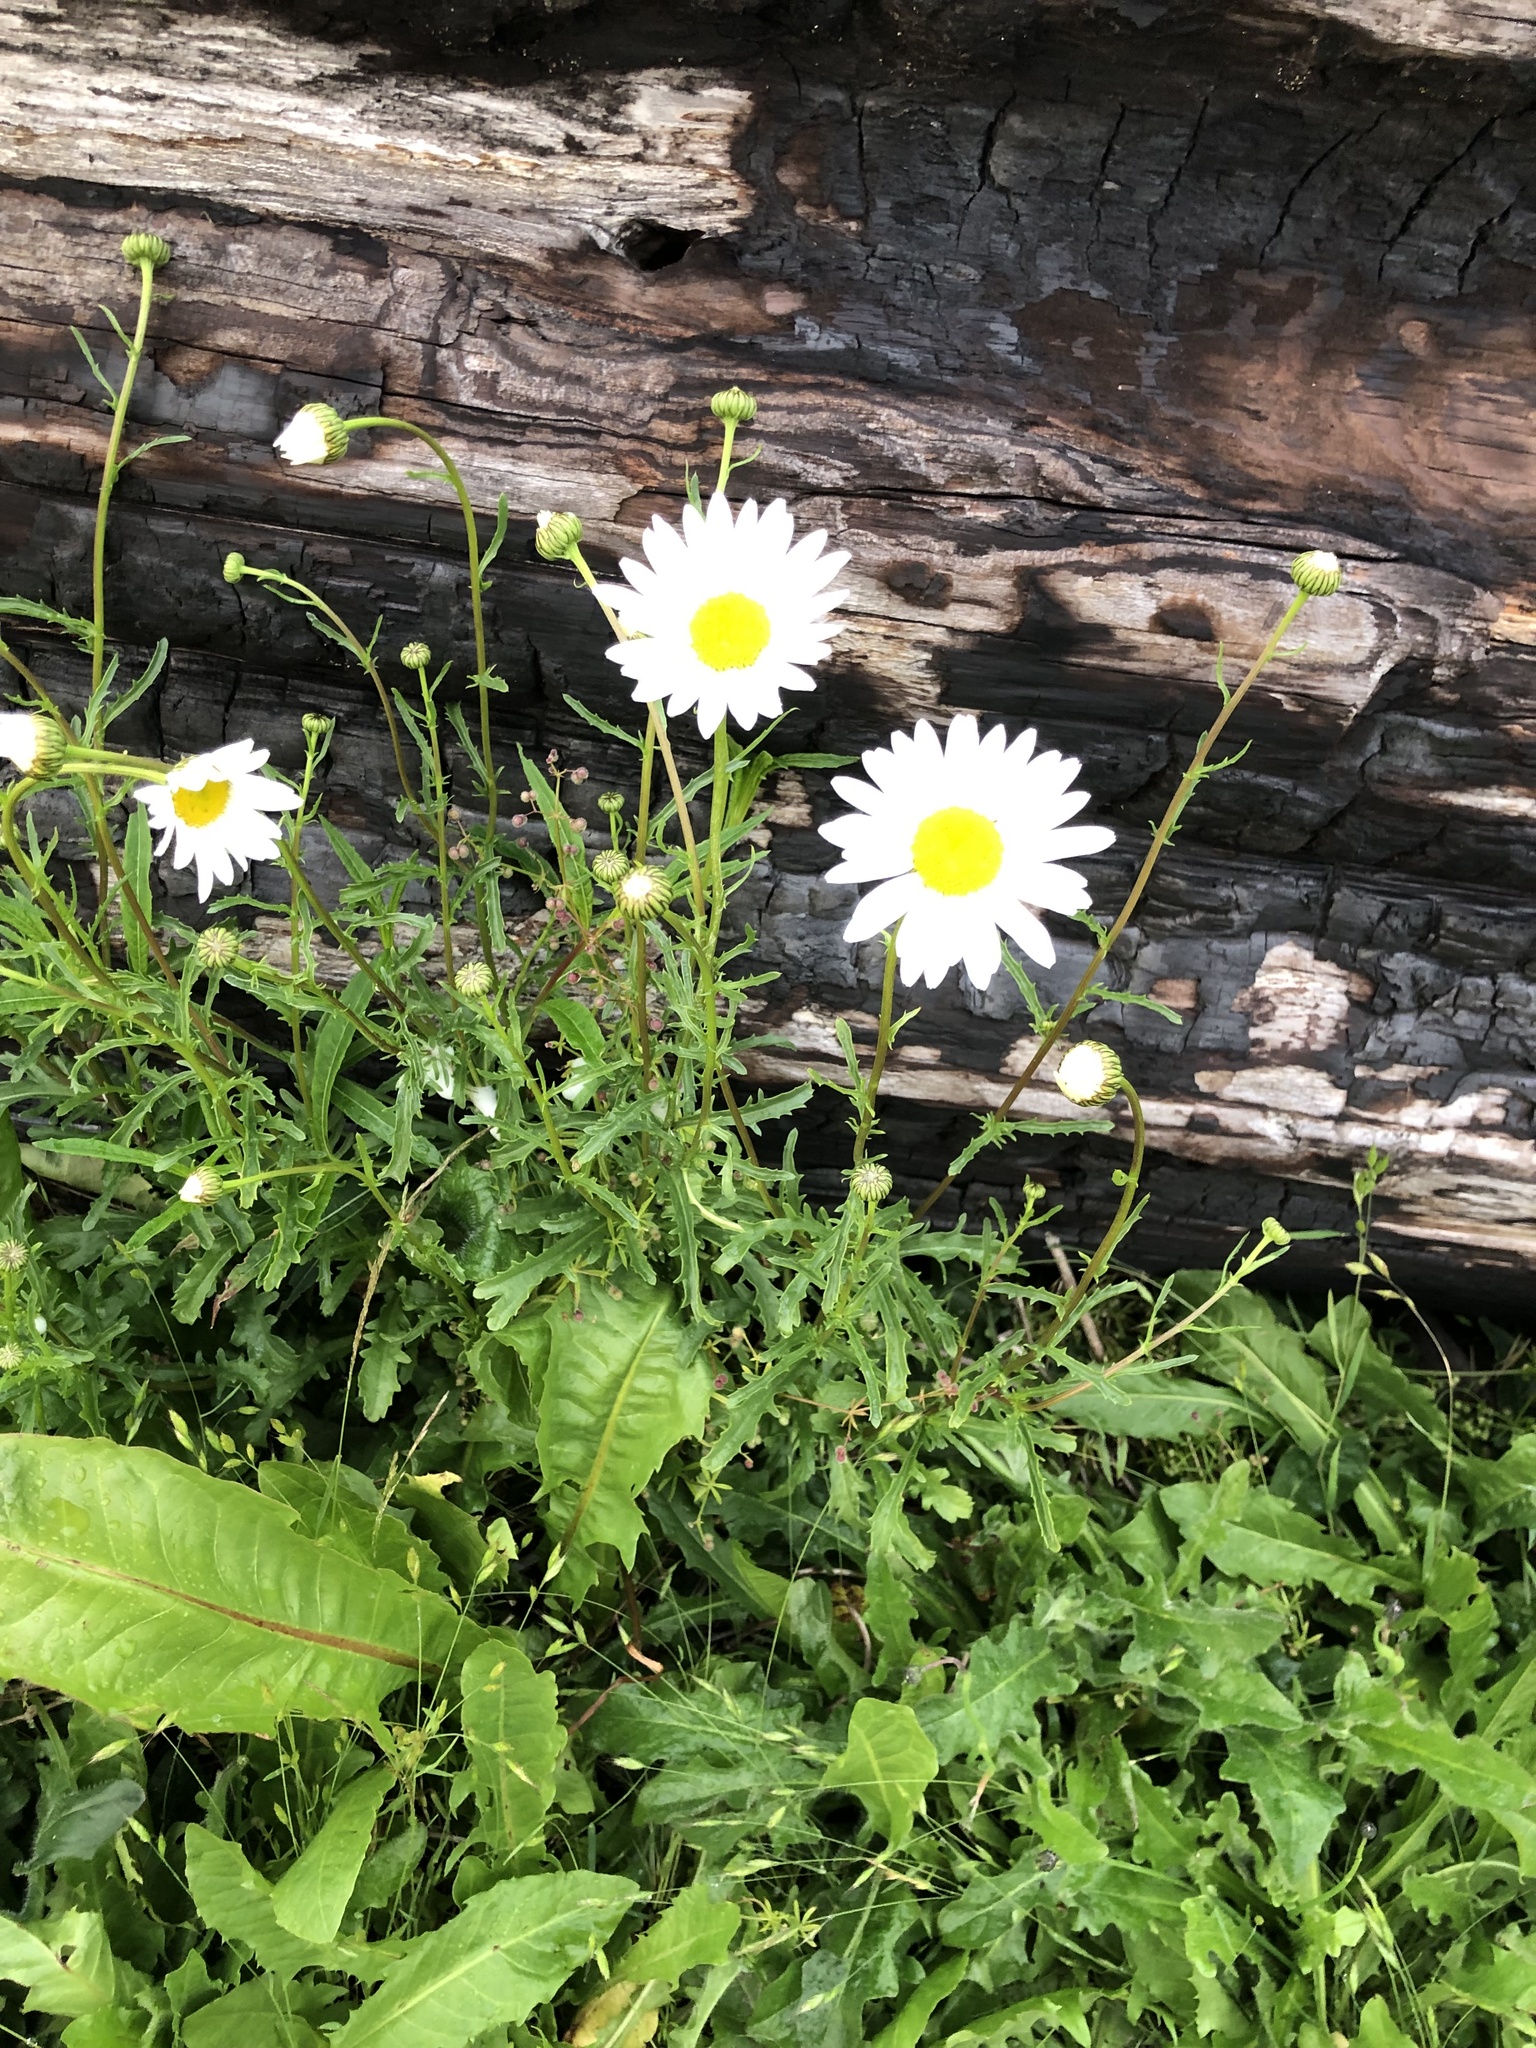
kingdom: Plantae
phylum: Tracheophyta
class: Magnoliopsida
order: Asterales
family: Asteraceae
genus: Leucanthemum
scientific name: Leucanthemum vulgare
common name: Oxeye daisy
